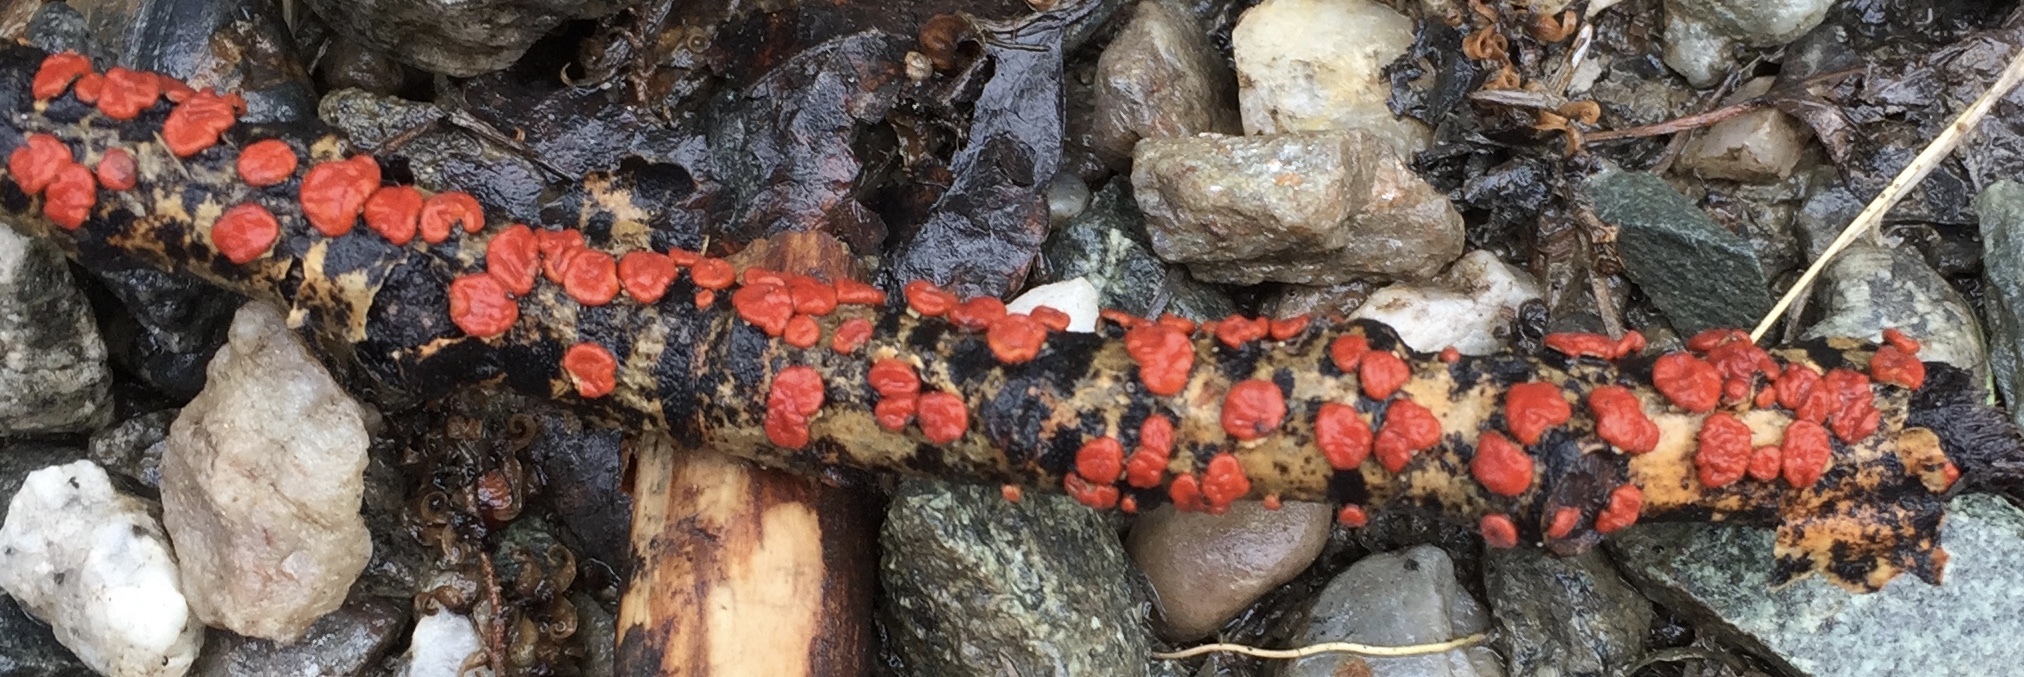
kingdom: Fungi
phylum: Basidiomycota
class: Agaricomycetes
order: Russulales
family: Peniophoraceae
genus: Peniophora
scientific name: Peniophora rufa
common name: Red tree brain fungus
